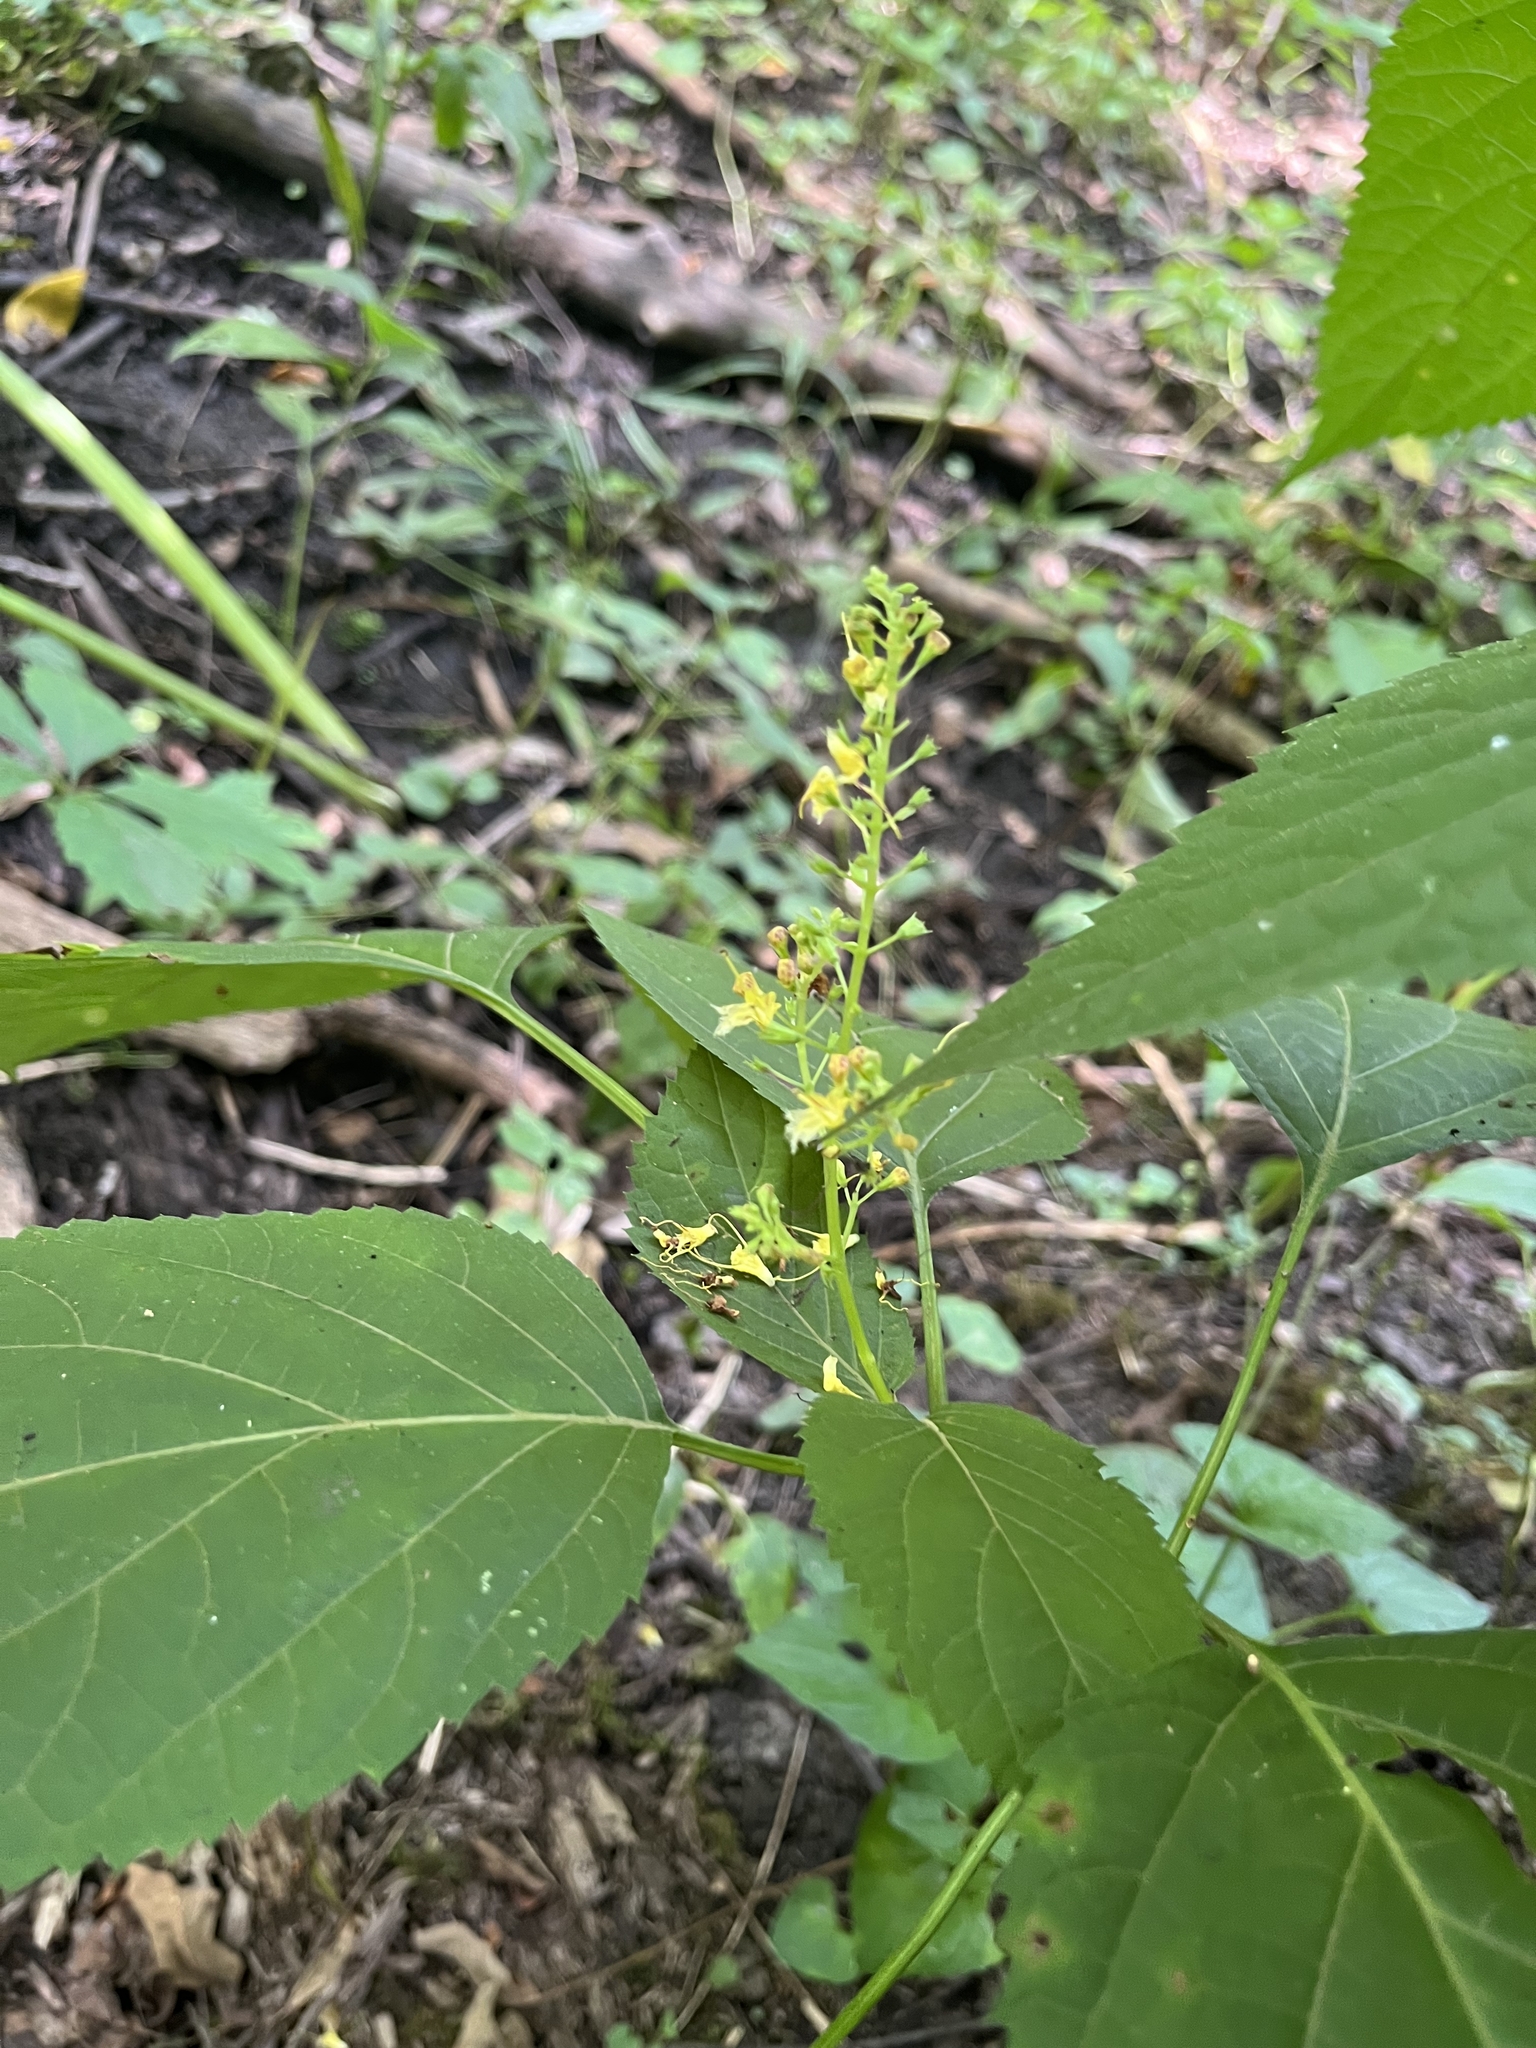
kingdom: Plantae
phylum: Tracheophyta
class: Magnoliopsida
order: Lamiales
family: Lamiaceae
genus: Collinsonia
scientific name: Collinsonia canadensis
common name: Northern horsebalm
